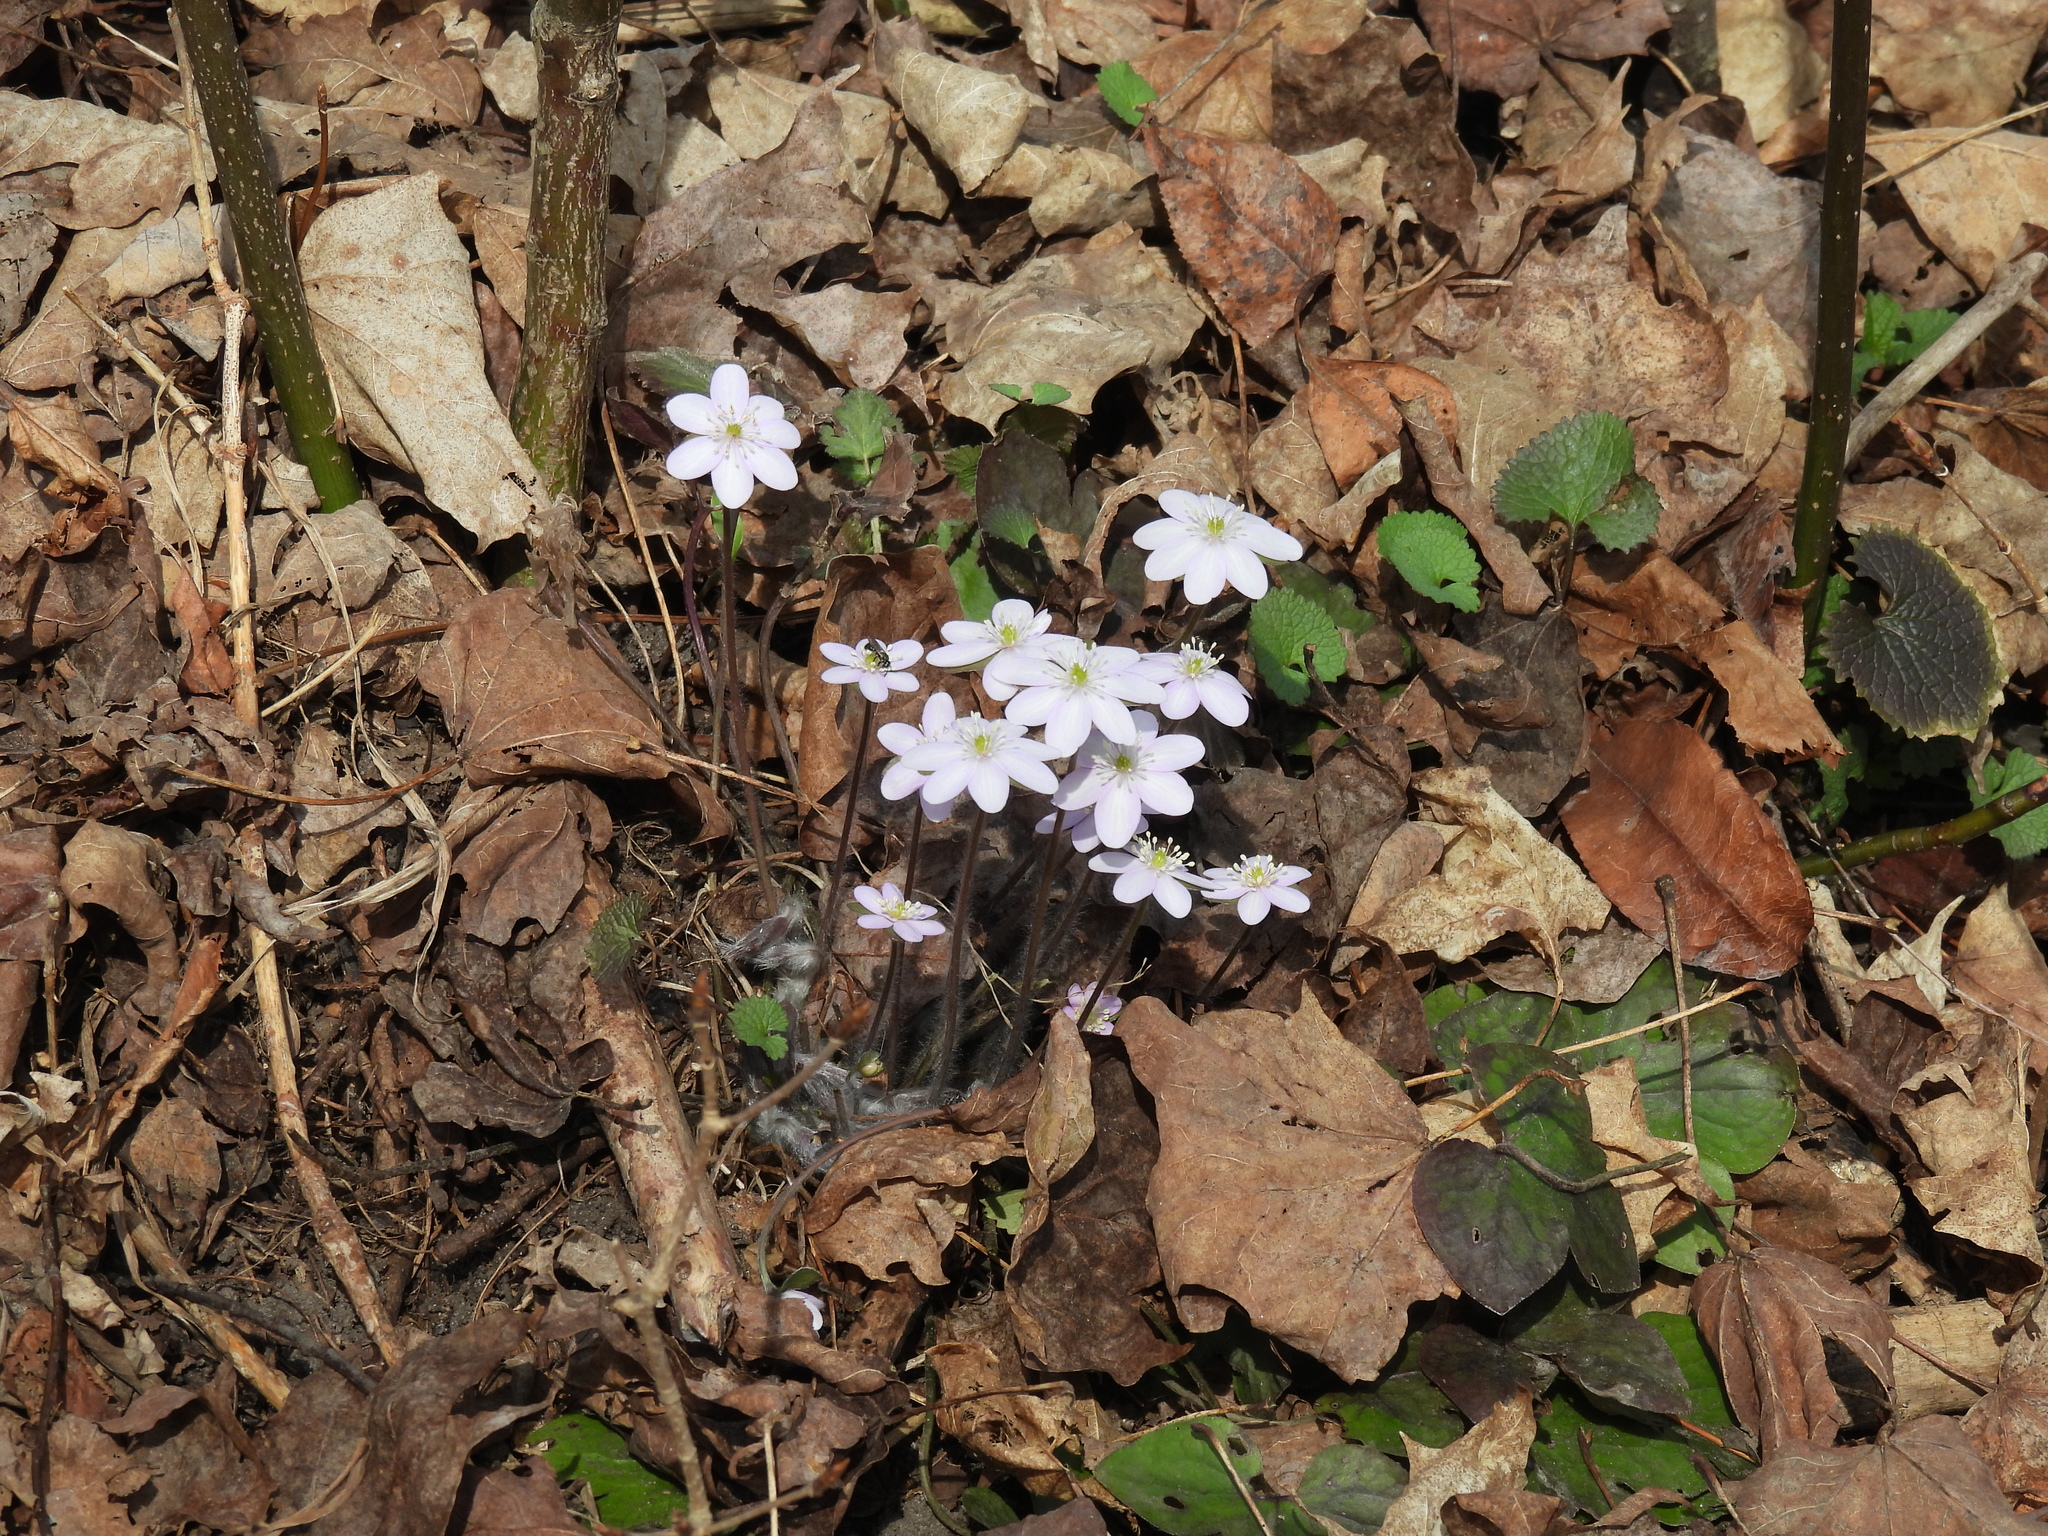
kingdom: Plantae
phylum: Tracheophyta
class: Magnoliopsida
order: Ranunculales
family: Ranunculaceae
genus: Hepatica
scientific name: Hepatica acutiloba
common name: Sharp-lobed hepatica
